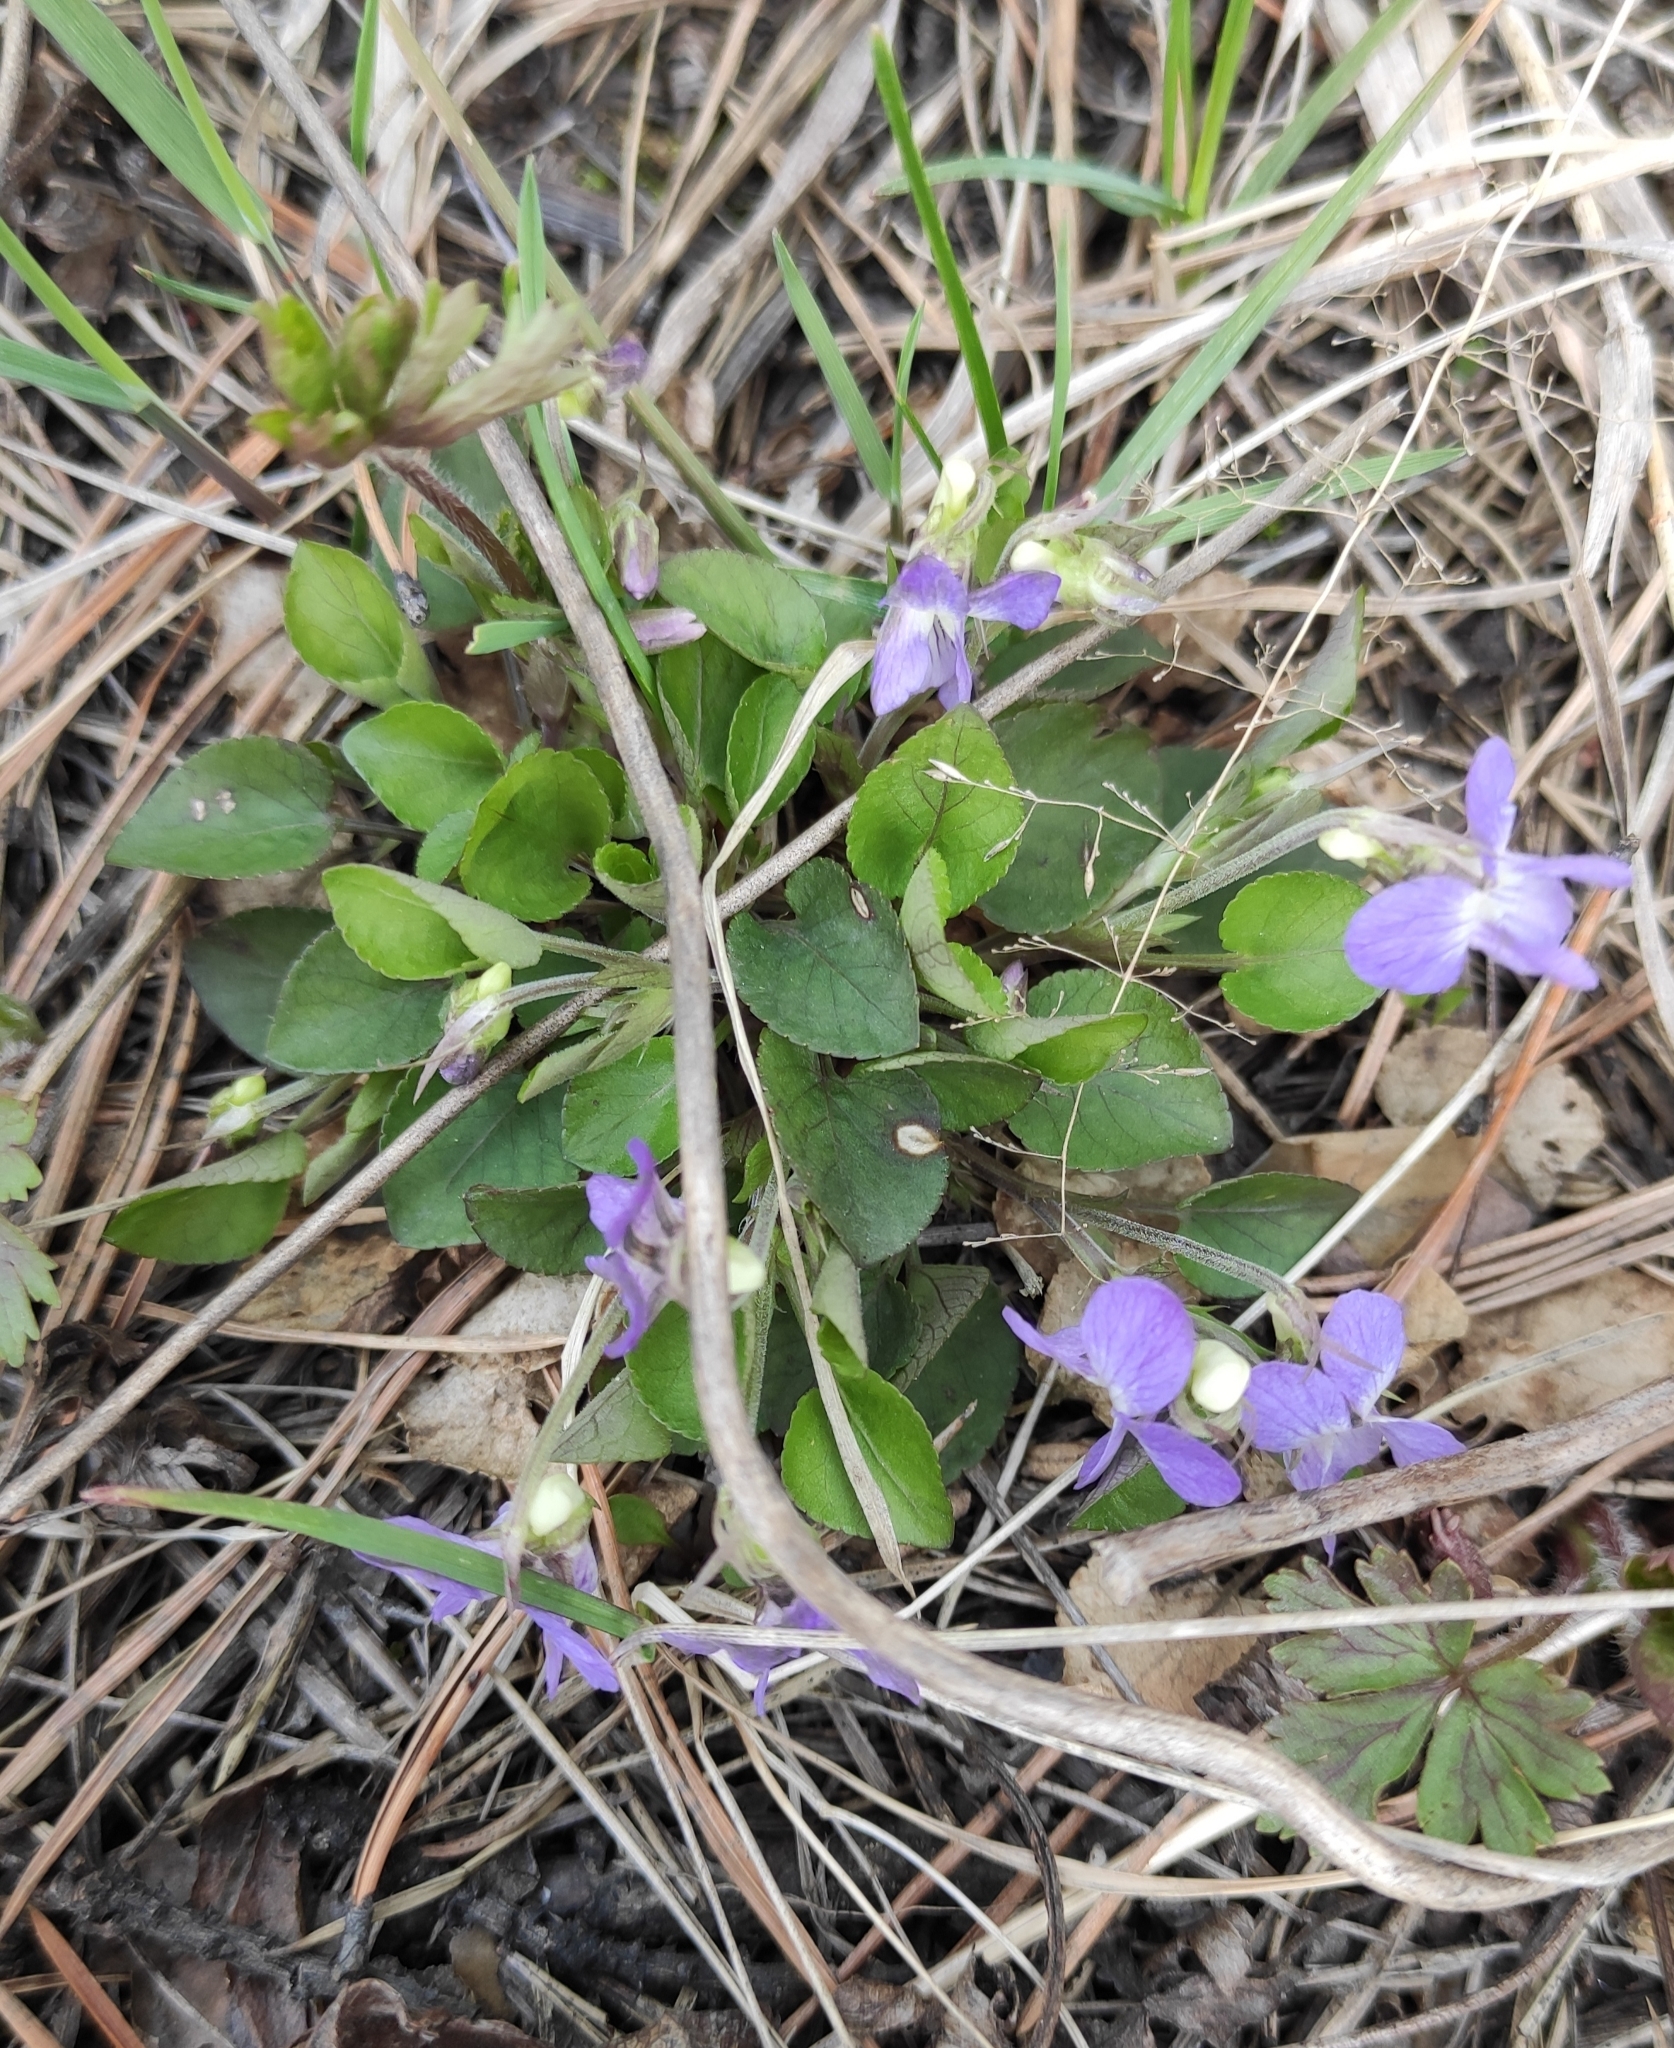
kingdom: Plantae
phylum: Tracheophyta
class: Magnoliopsida
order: Malpighiales
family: Violaceae
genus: Viola
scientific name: Viola rupestris
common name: Teesdale violet
